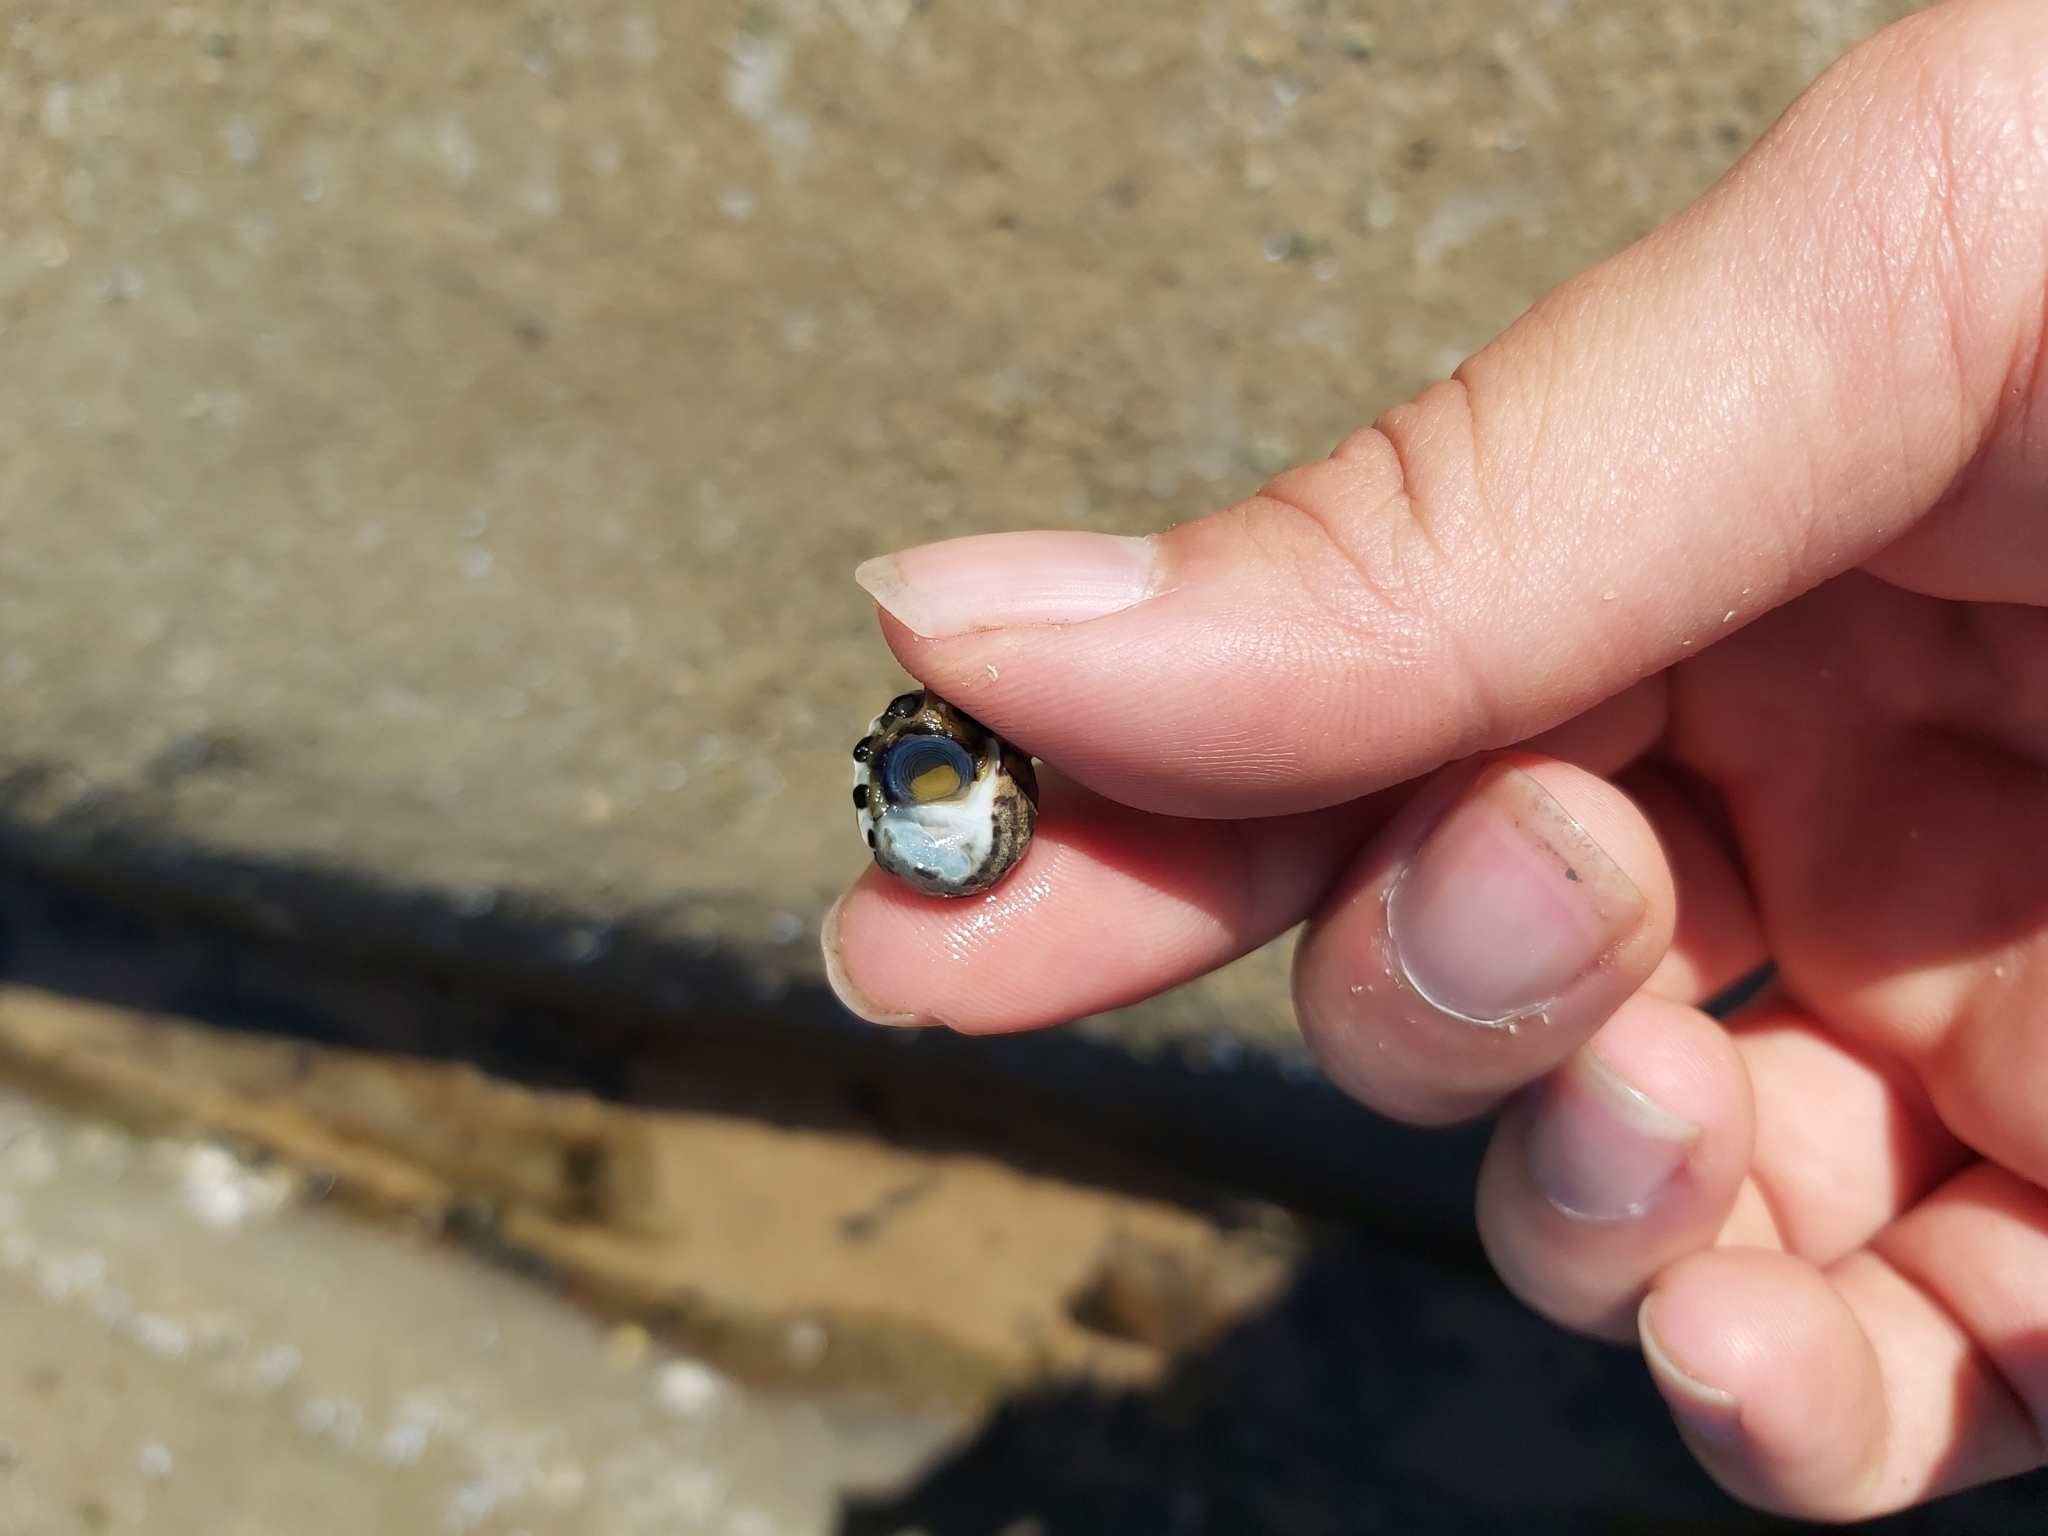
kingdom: Animalia
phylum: Mollusca
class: Gastropoda
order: Trochida
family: Trochidae
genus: Austrocochlea
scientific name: Austrocochlea porcata
